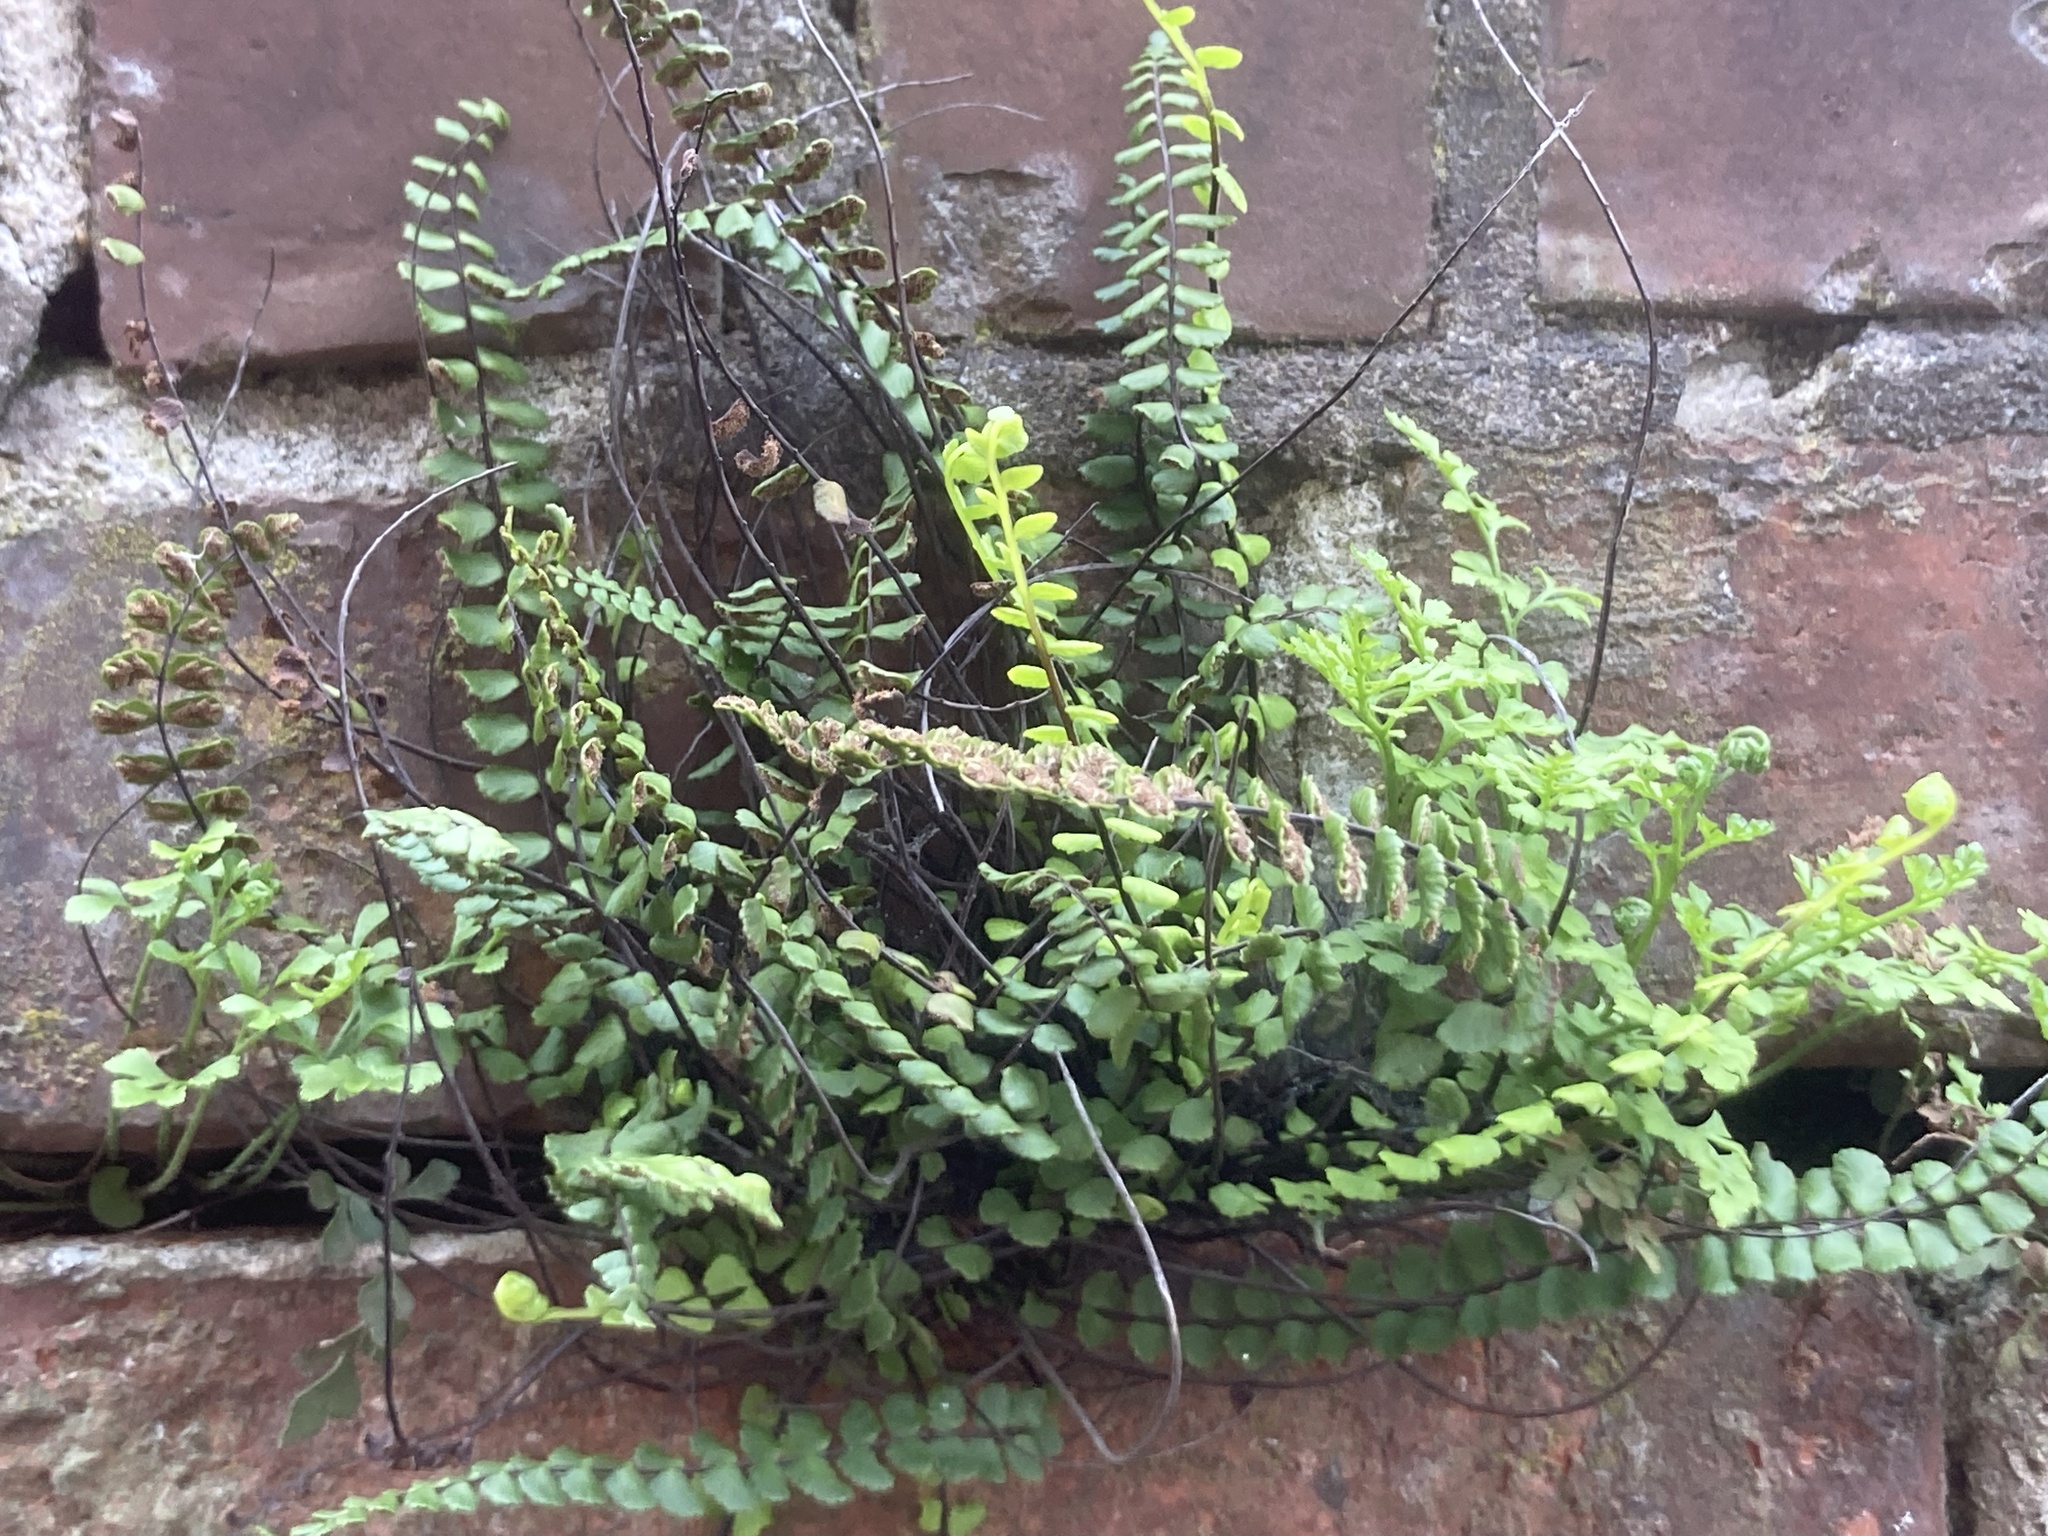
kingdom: Plantae
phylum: Tracheophyta
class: Polypodiopsida
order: Polypodiales
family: Aspleniaceae
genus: Asplenium
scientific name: Asplenium trichomanes
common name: Maidenhair spleenwort
